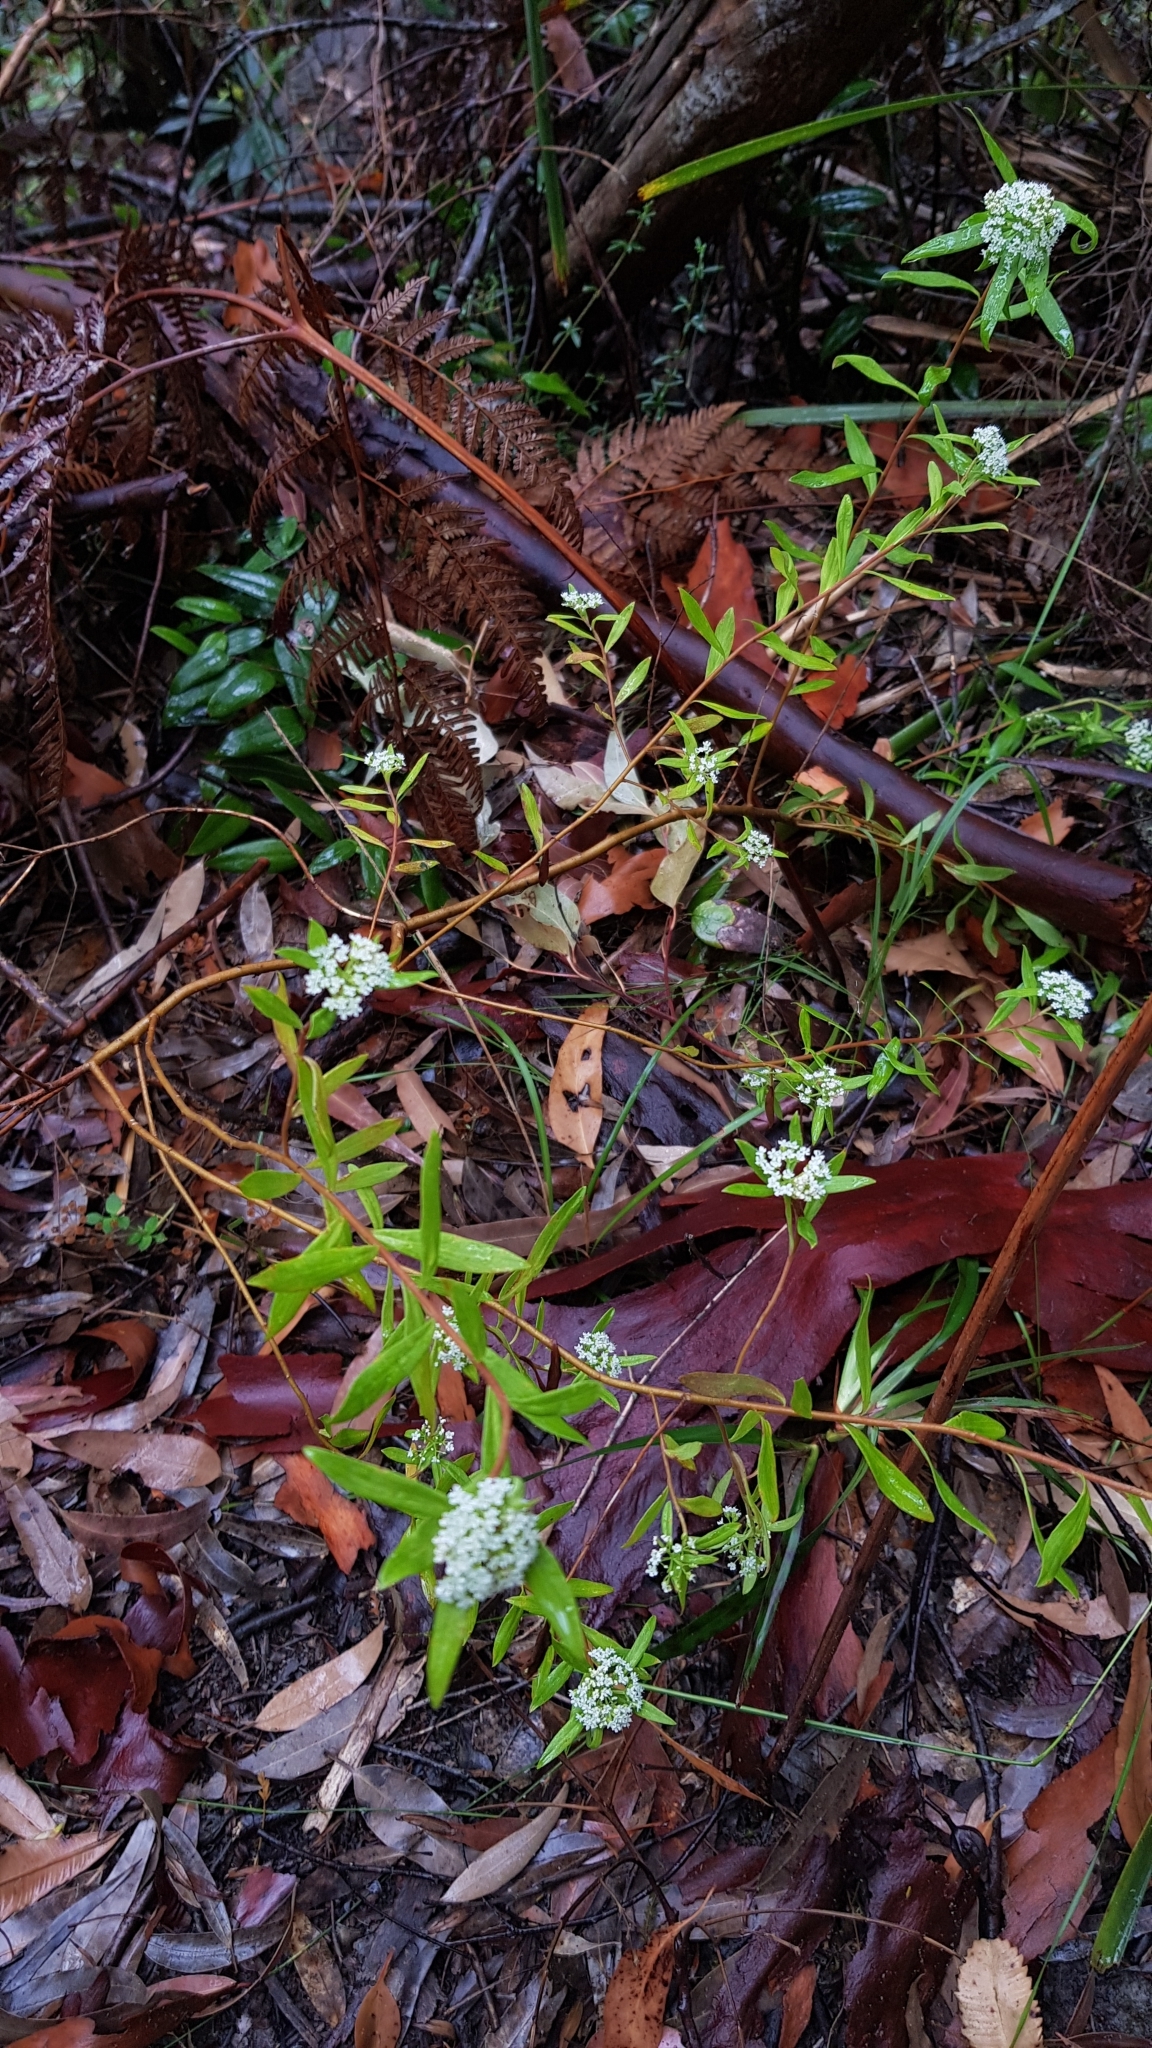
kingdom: Plantae
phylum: Tracheophyta
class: Magnoliopsida
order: Apiales
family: Apiaceae
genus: Platysace
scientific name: Platysace lanceolata
